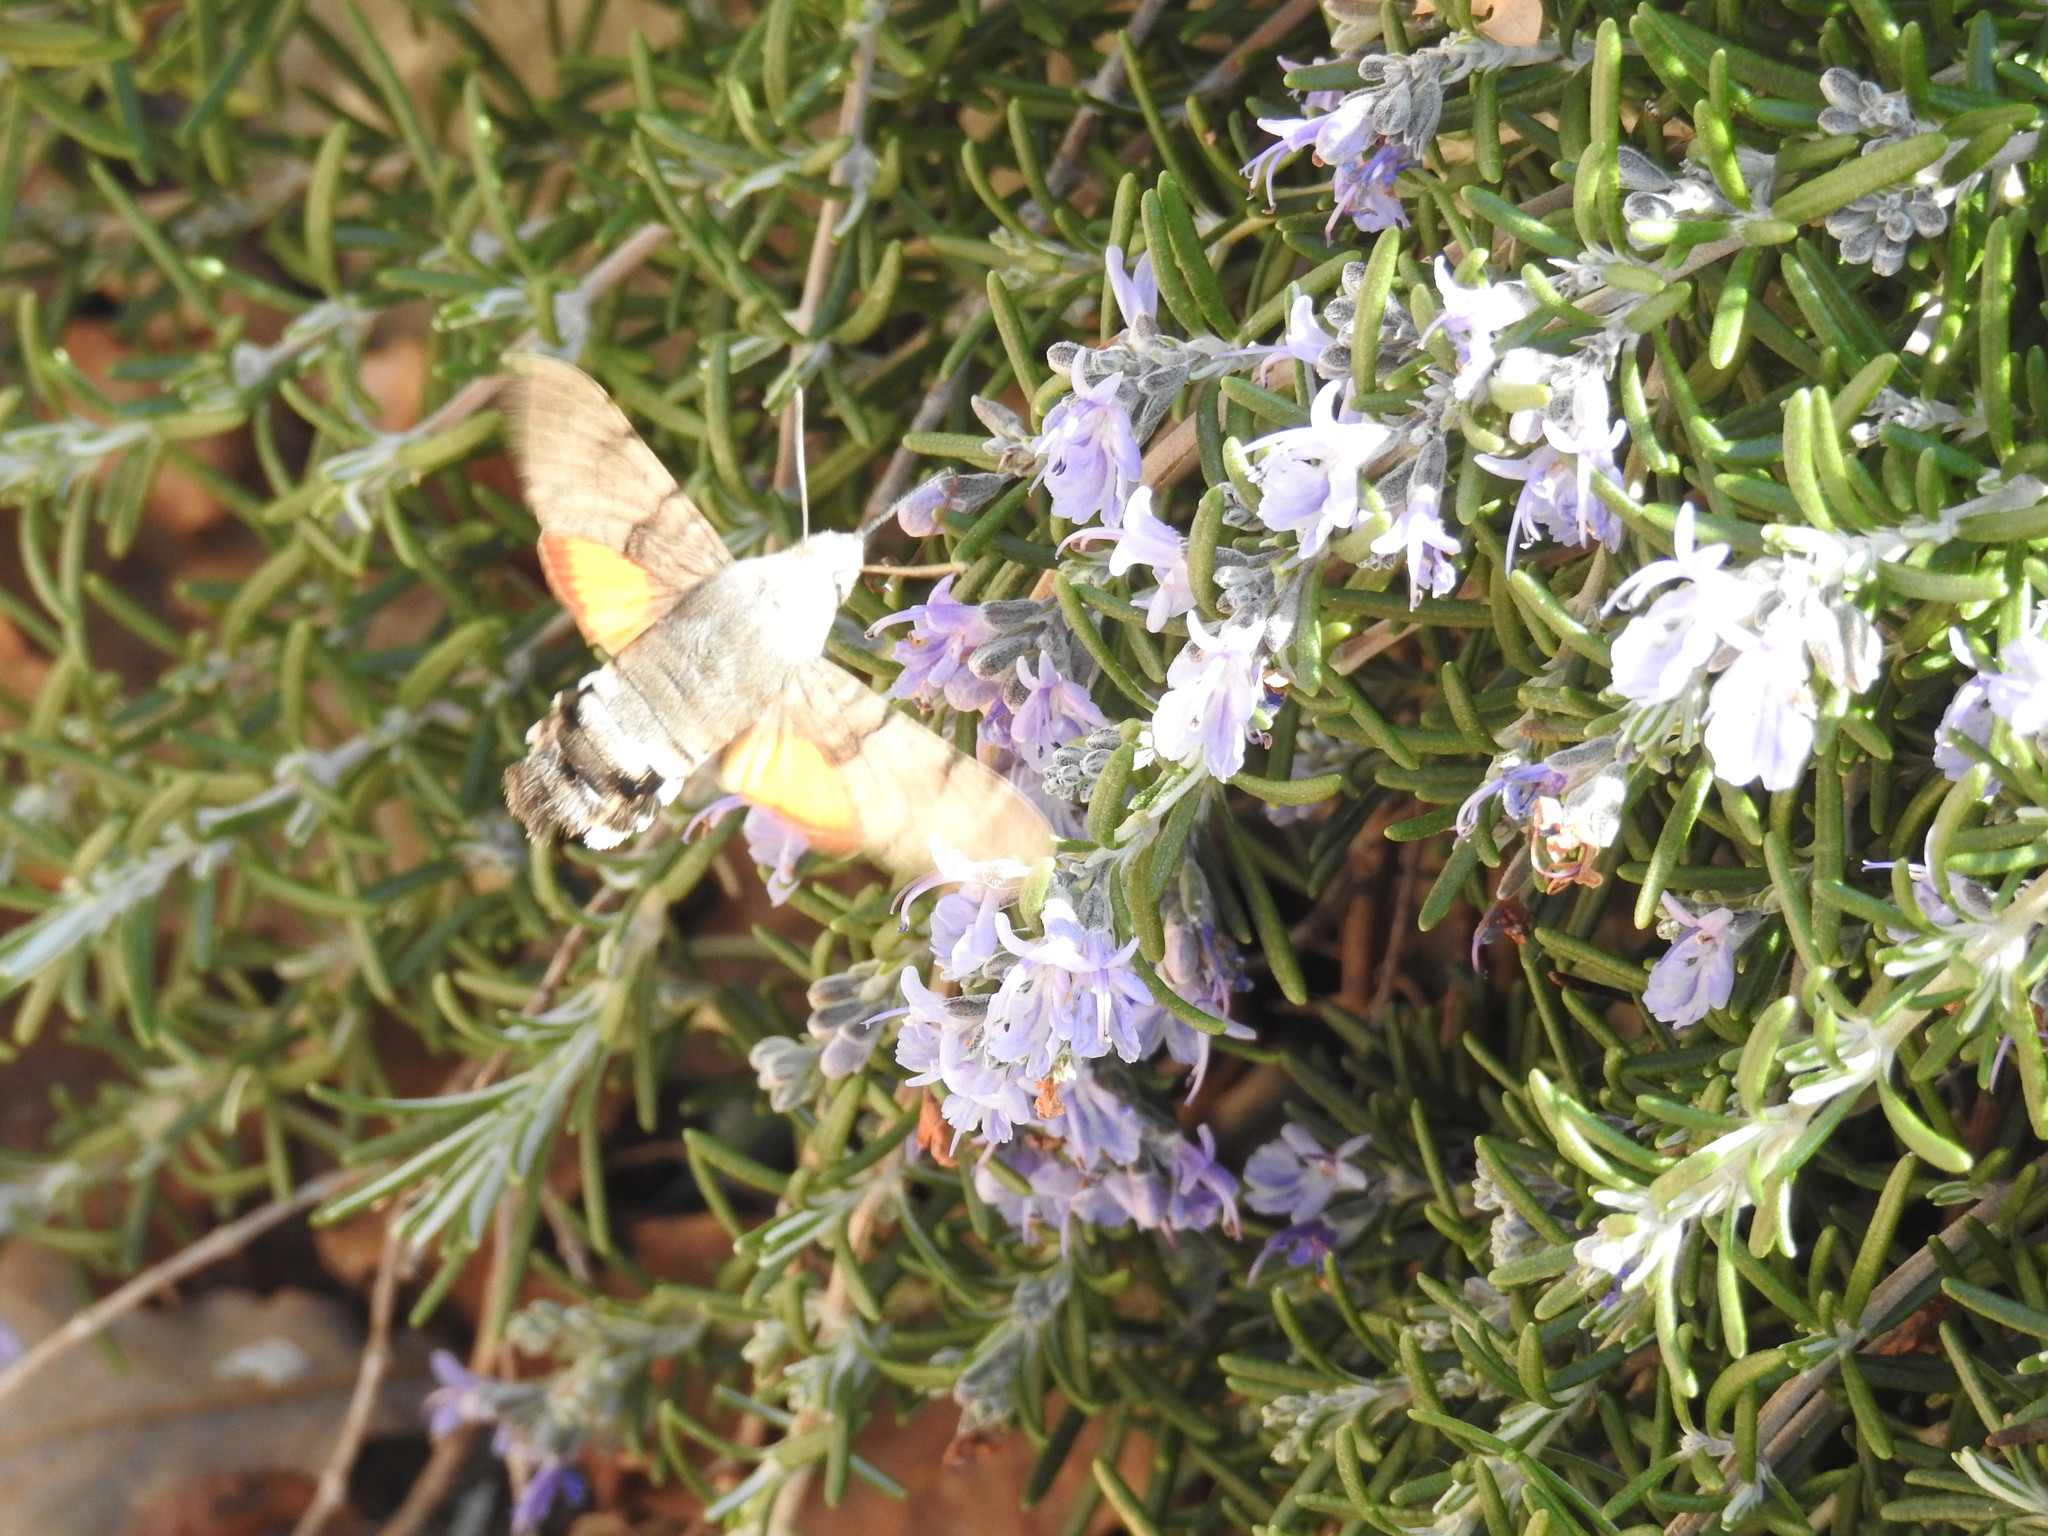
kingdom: Animalia
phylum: Arthropoda
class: Insecta
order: Lepidoptera
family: Sphingidae
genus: Macroglossum
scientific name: Macroglossum stellatarum
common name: Humming-bird hawk-moth
